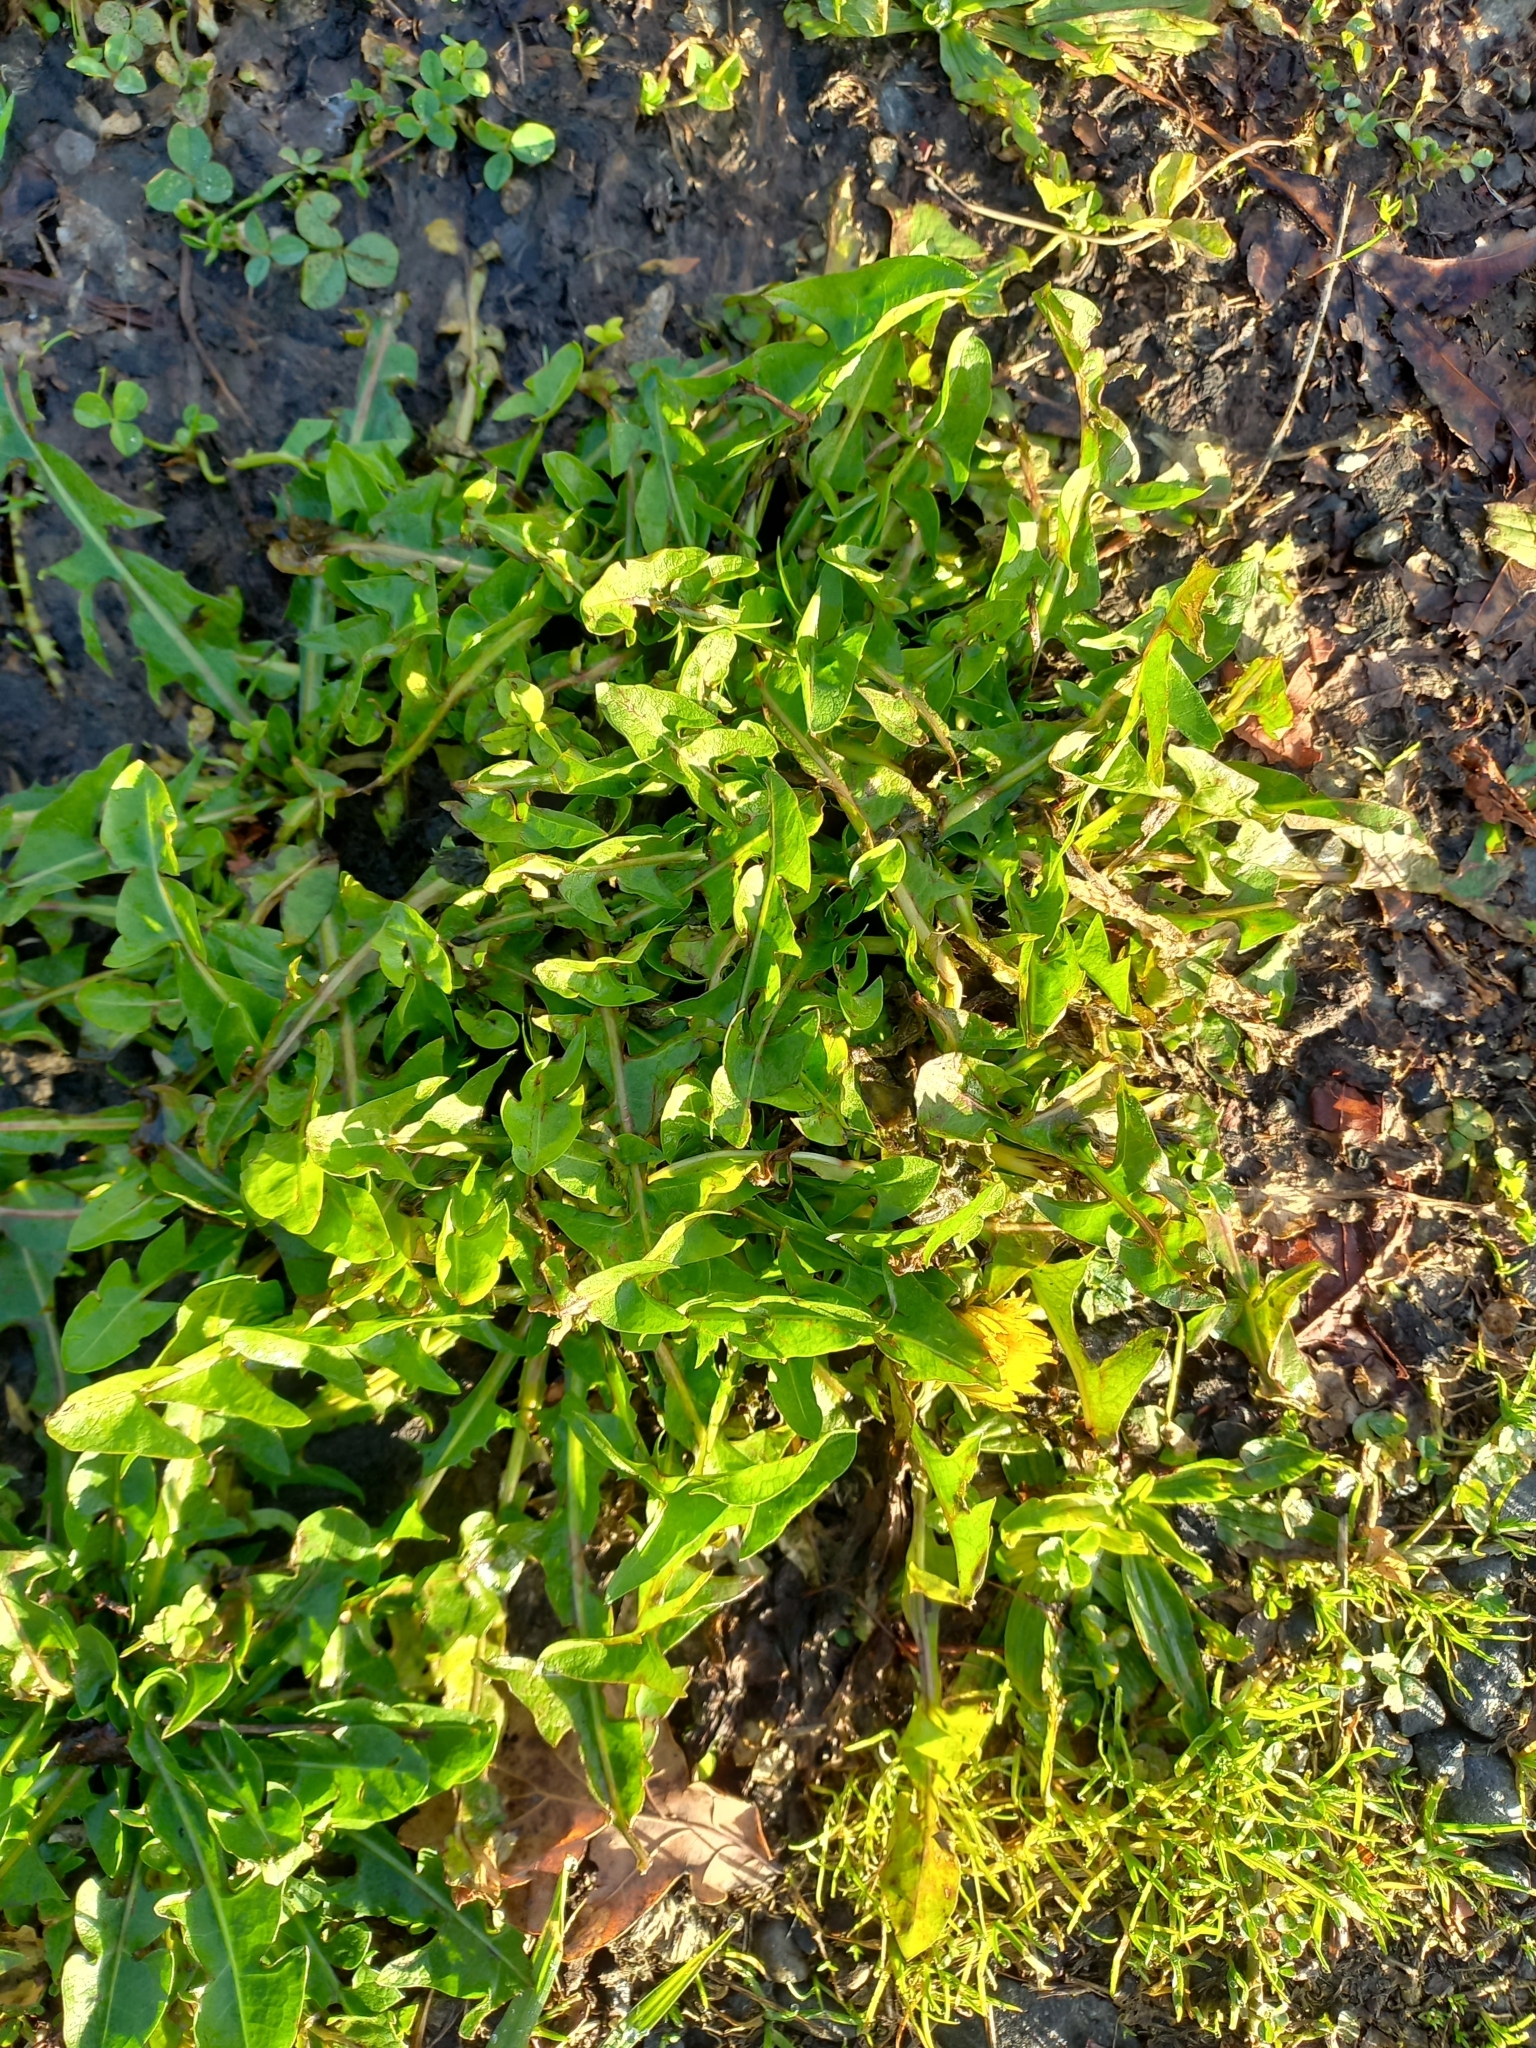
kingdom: Plantae
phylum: Tracheophyta
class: Magnoliopsida
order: Asterales
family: Asteraceae
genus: Taraxacum
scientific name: Taraxacum officinale
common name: Common dandelion
